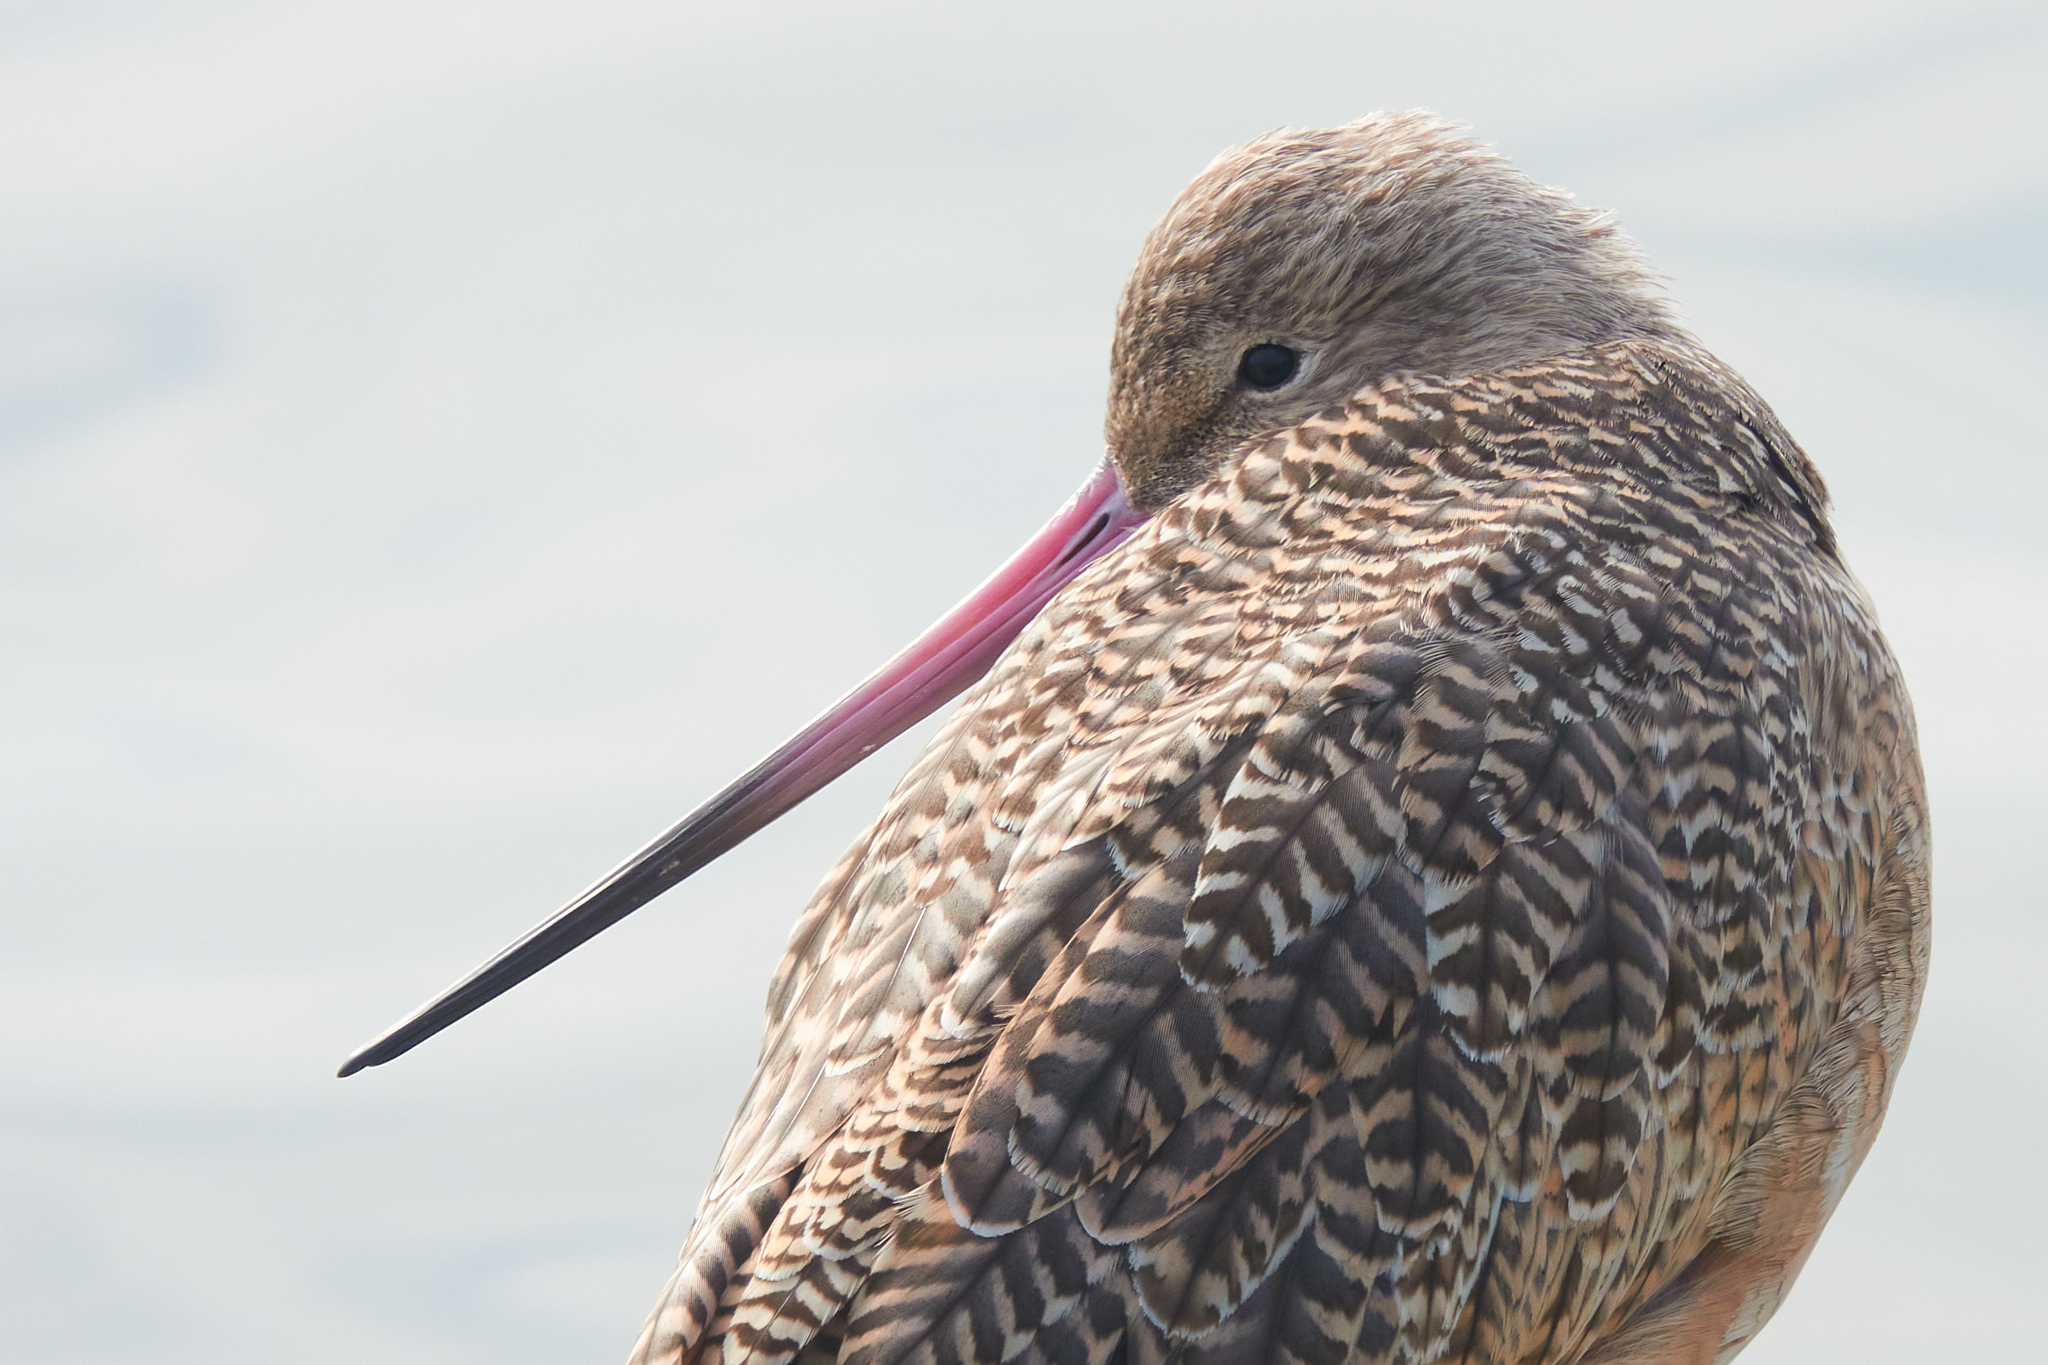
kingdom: Animalia
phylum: Chordata
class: Aves
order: Charadriiformes
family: Scolopacidae
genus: Limosa
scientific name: Limosa fedoa
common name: Marbled godwit
